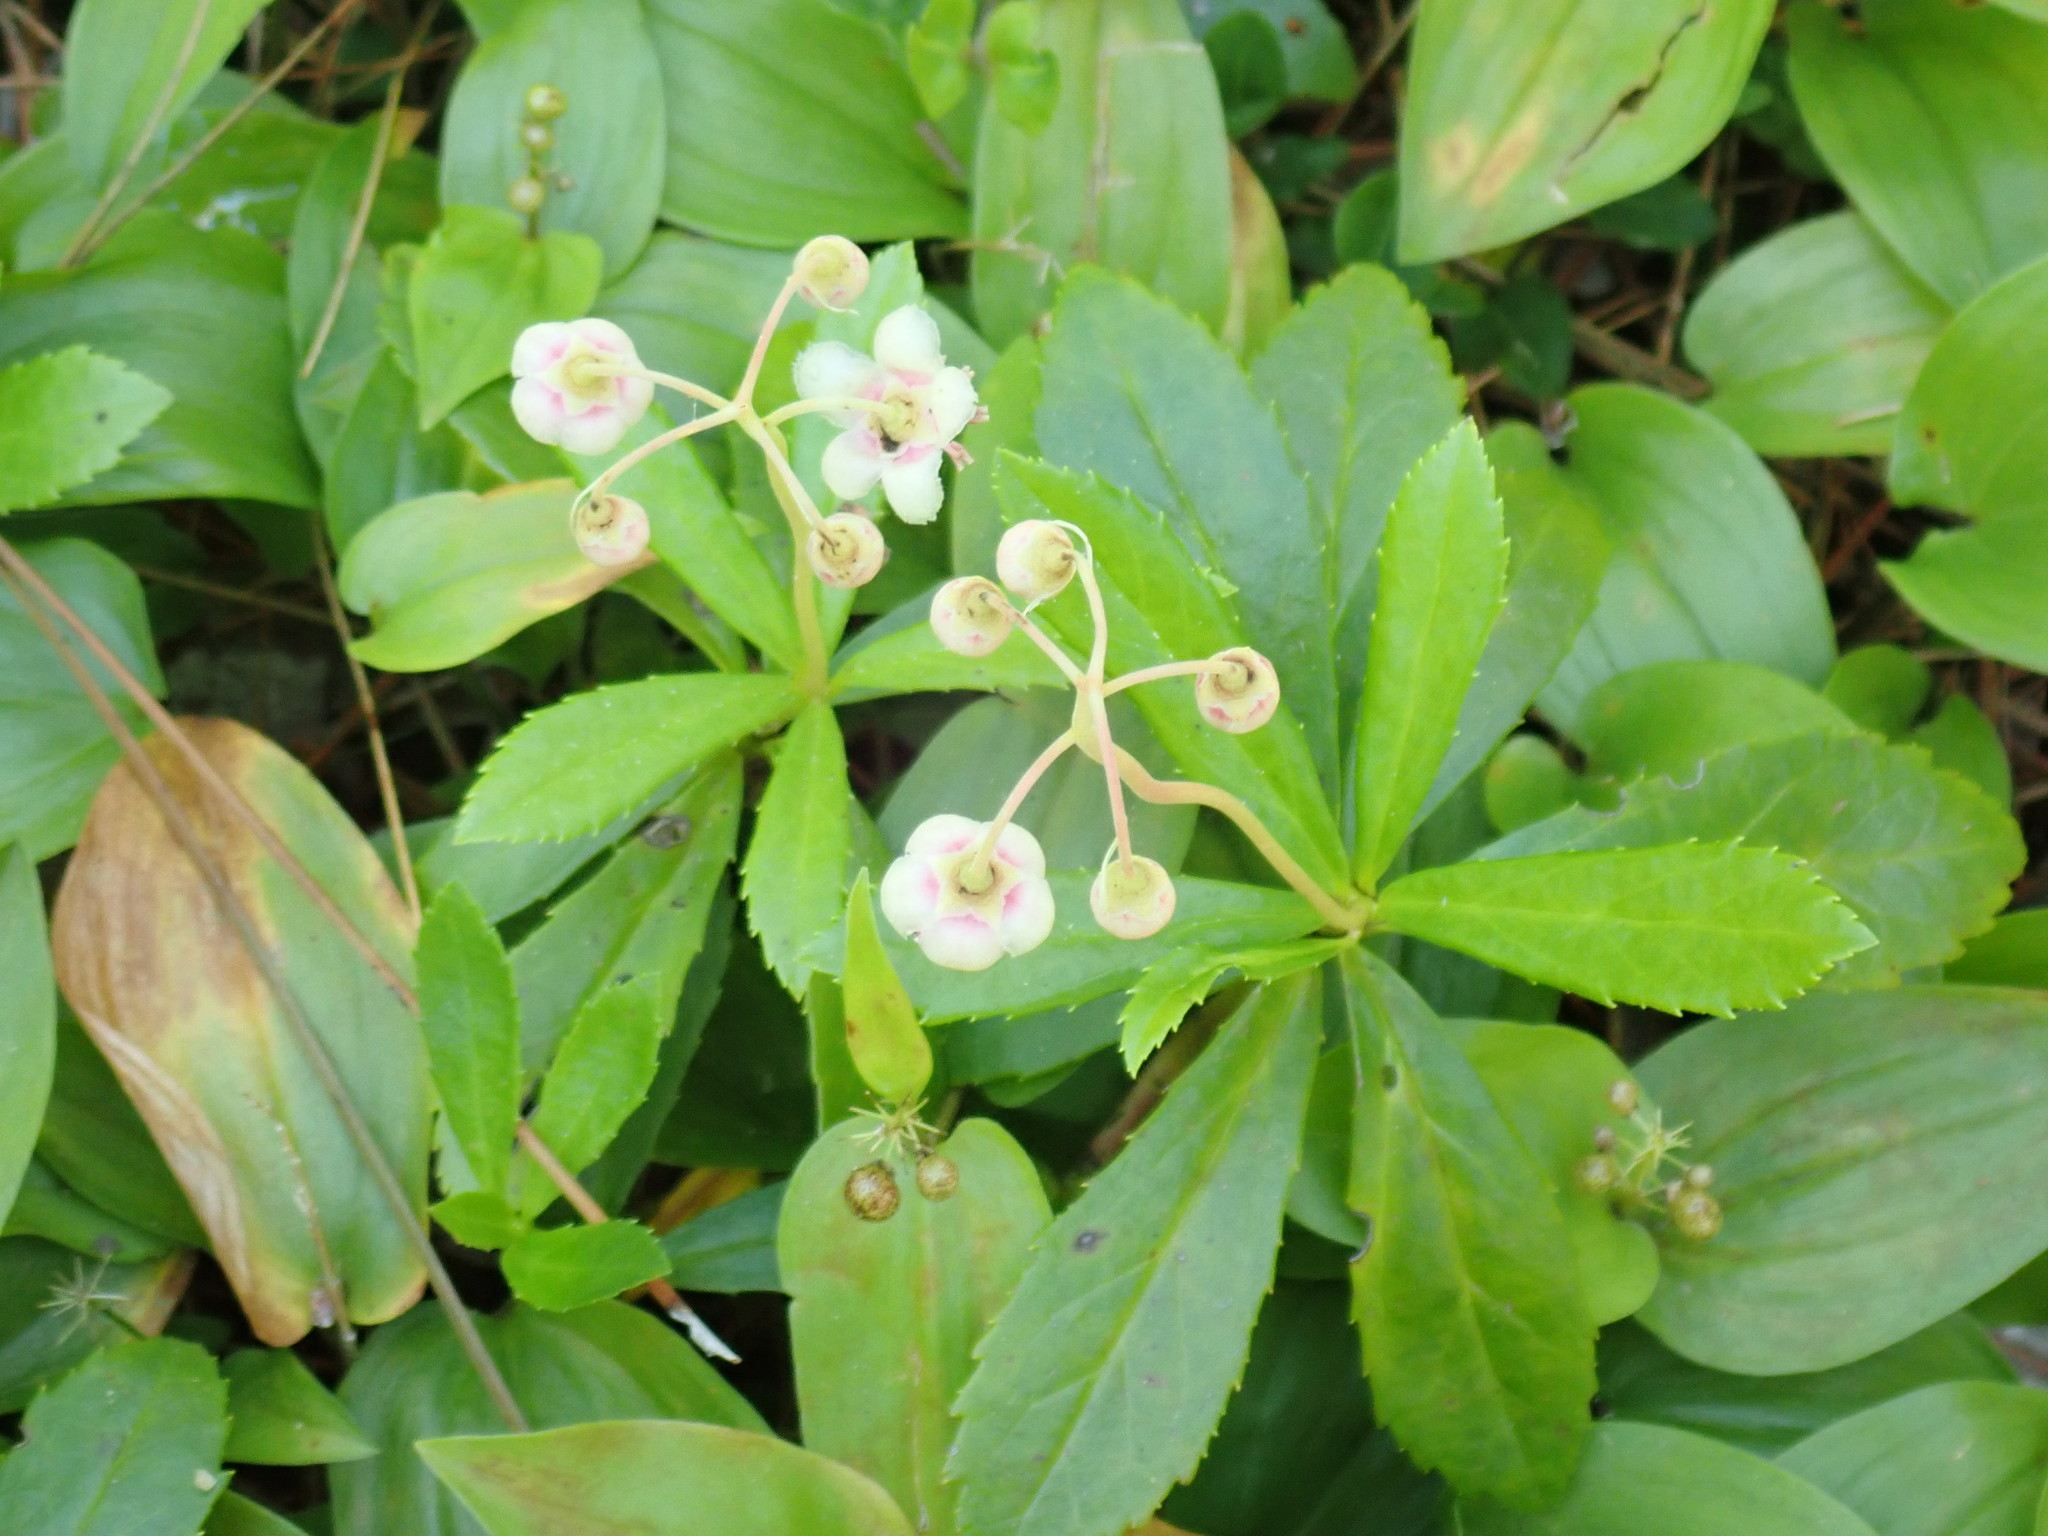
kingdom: Plantae
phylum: Tracheophyta
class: Magnoliopsida
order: Ericales
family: Ericaceae
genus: Chimaphila
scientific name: Chimaphila umbellata
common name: Pipsissewa
